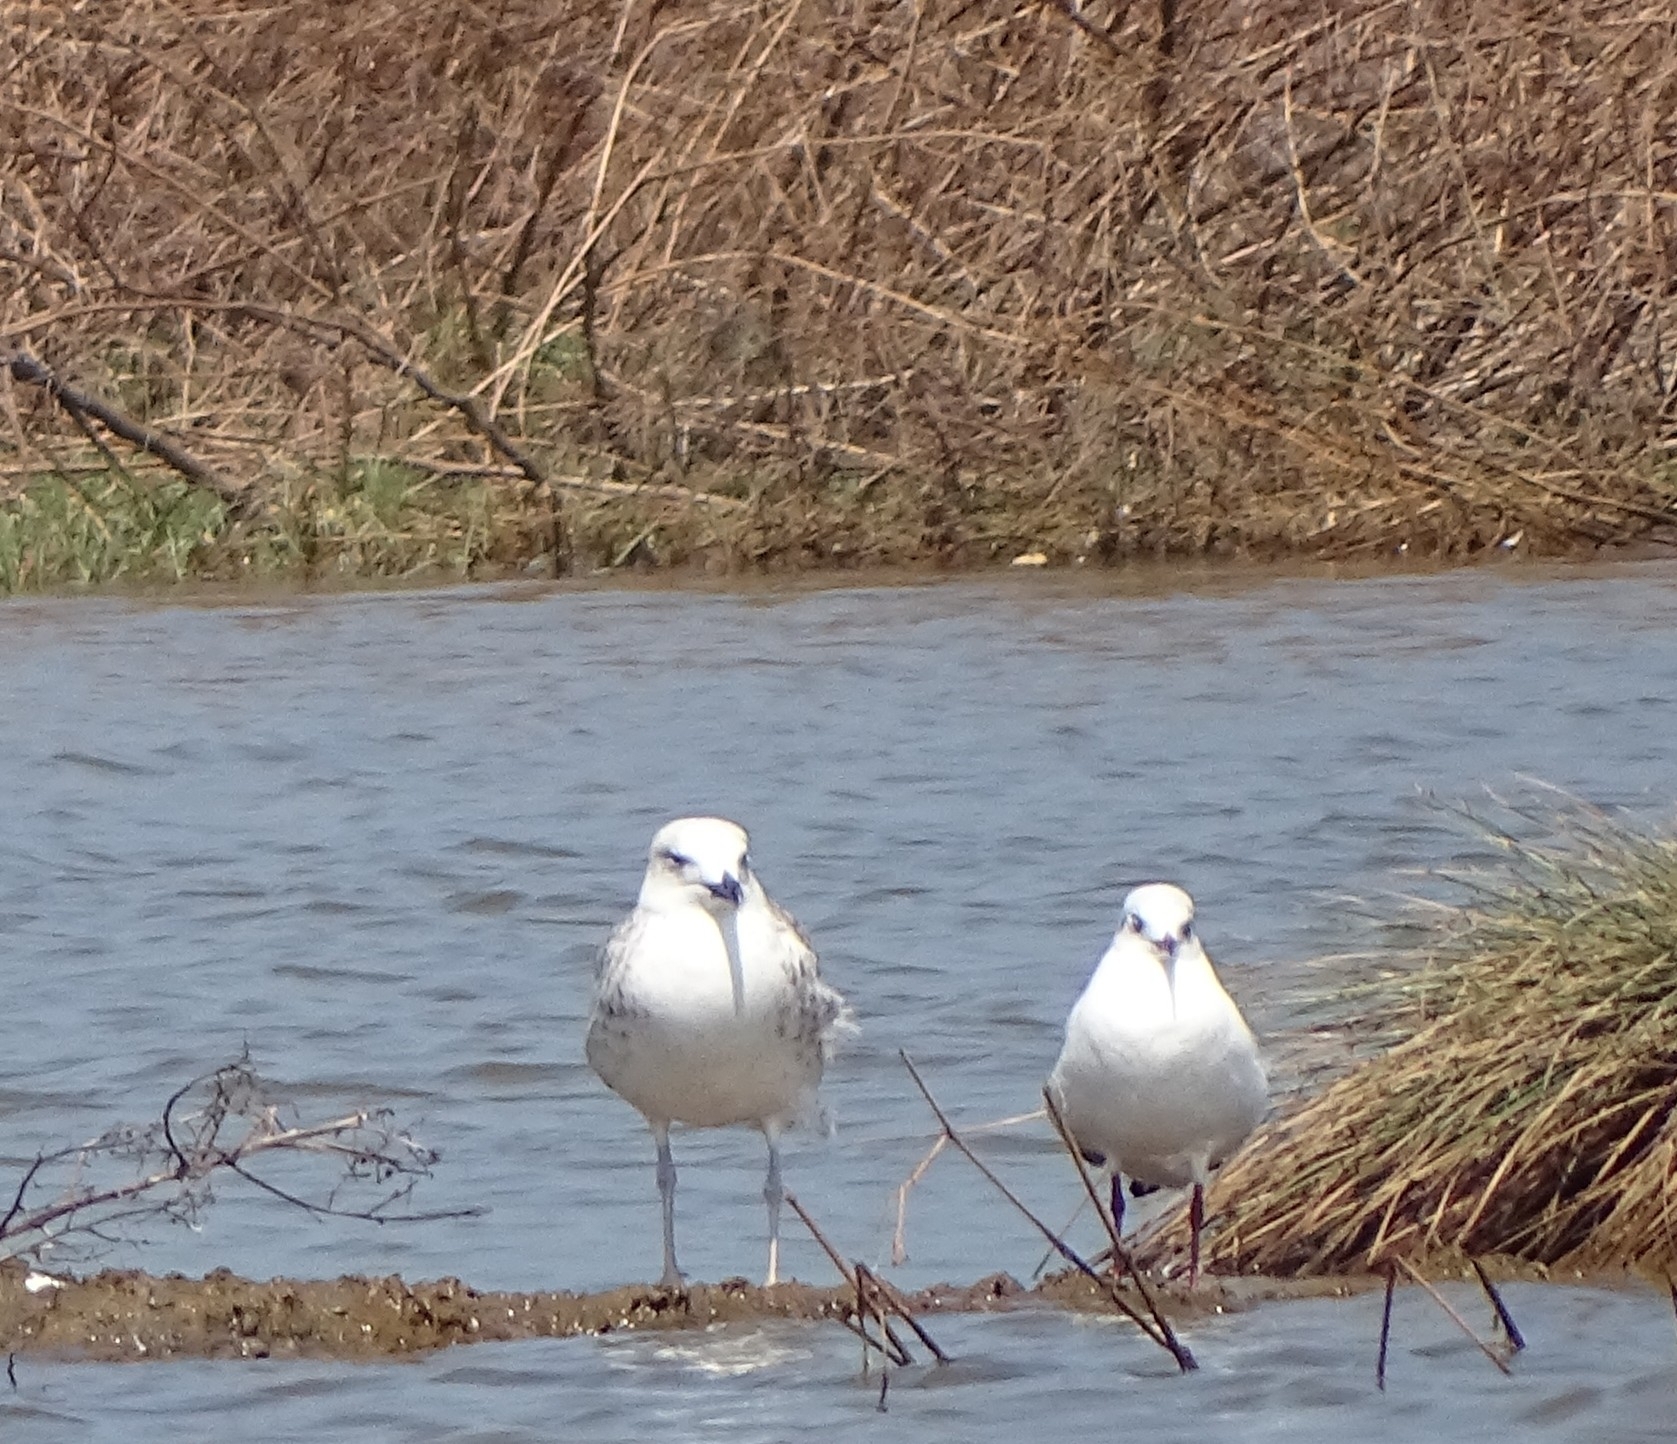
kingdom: Animalia
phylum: Chordata
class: Aves
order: Charadriiformes
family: Laridae
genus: Larus
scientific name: Larus fuscus
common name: Lesser black-backed gull
